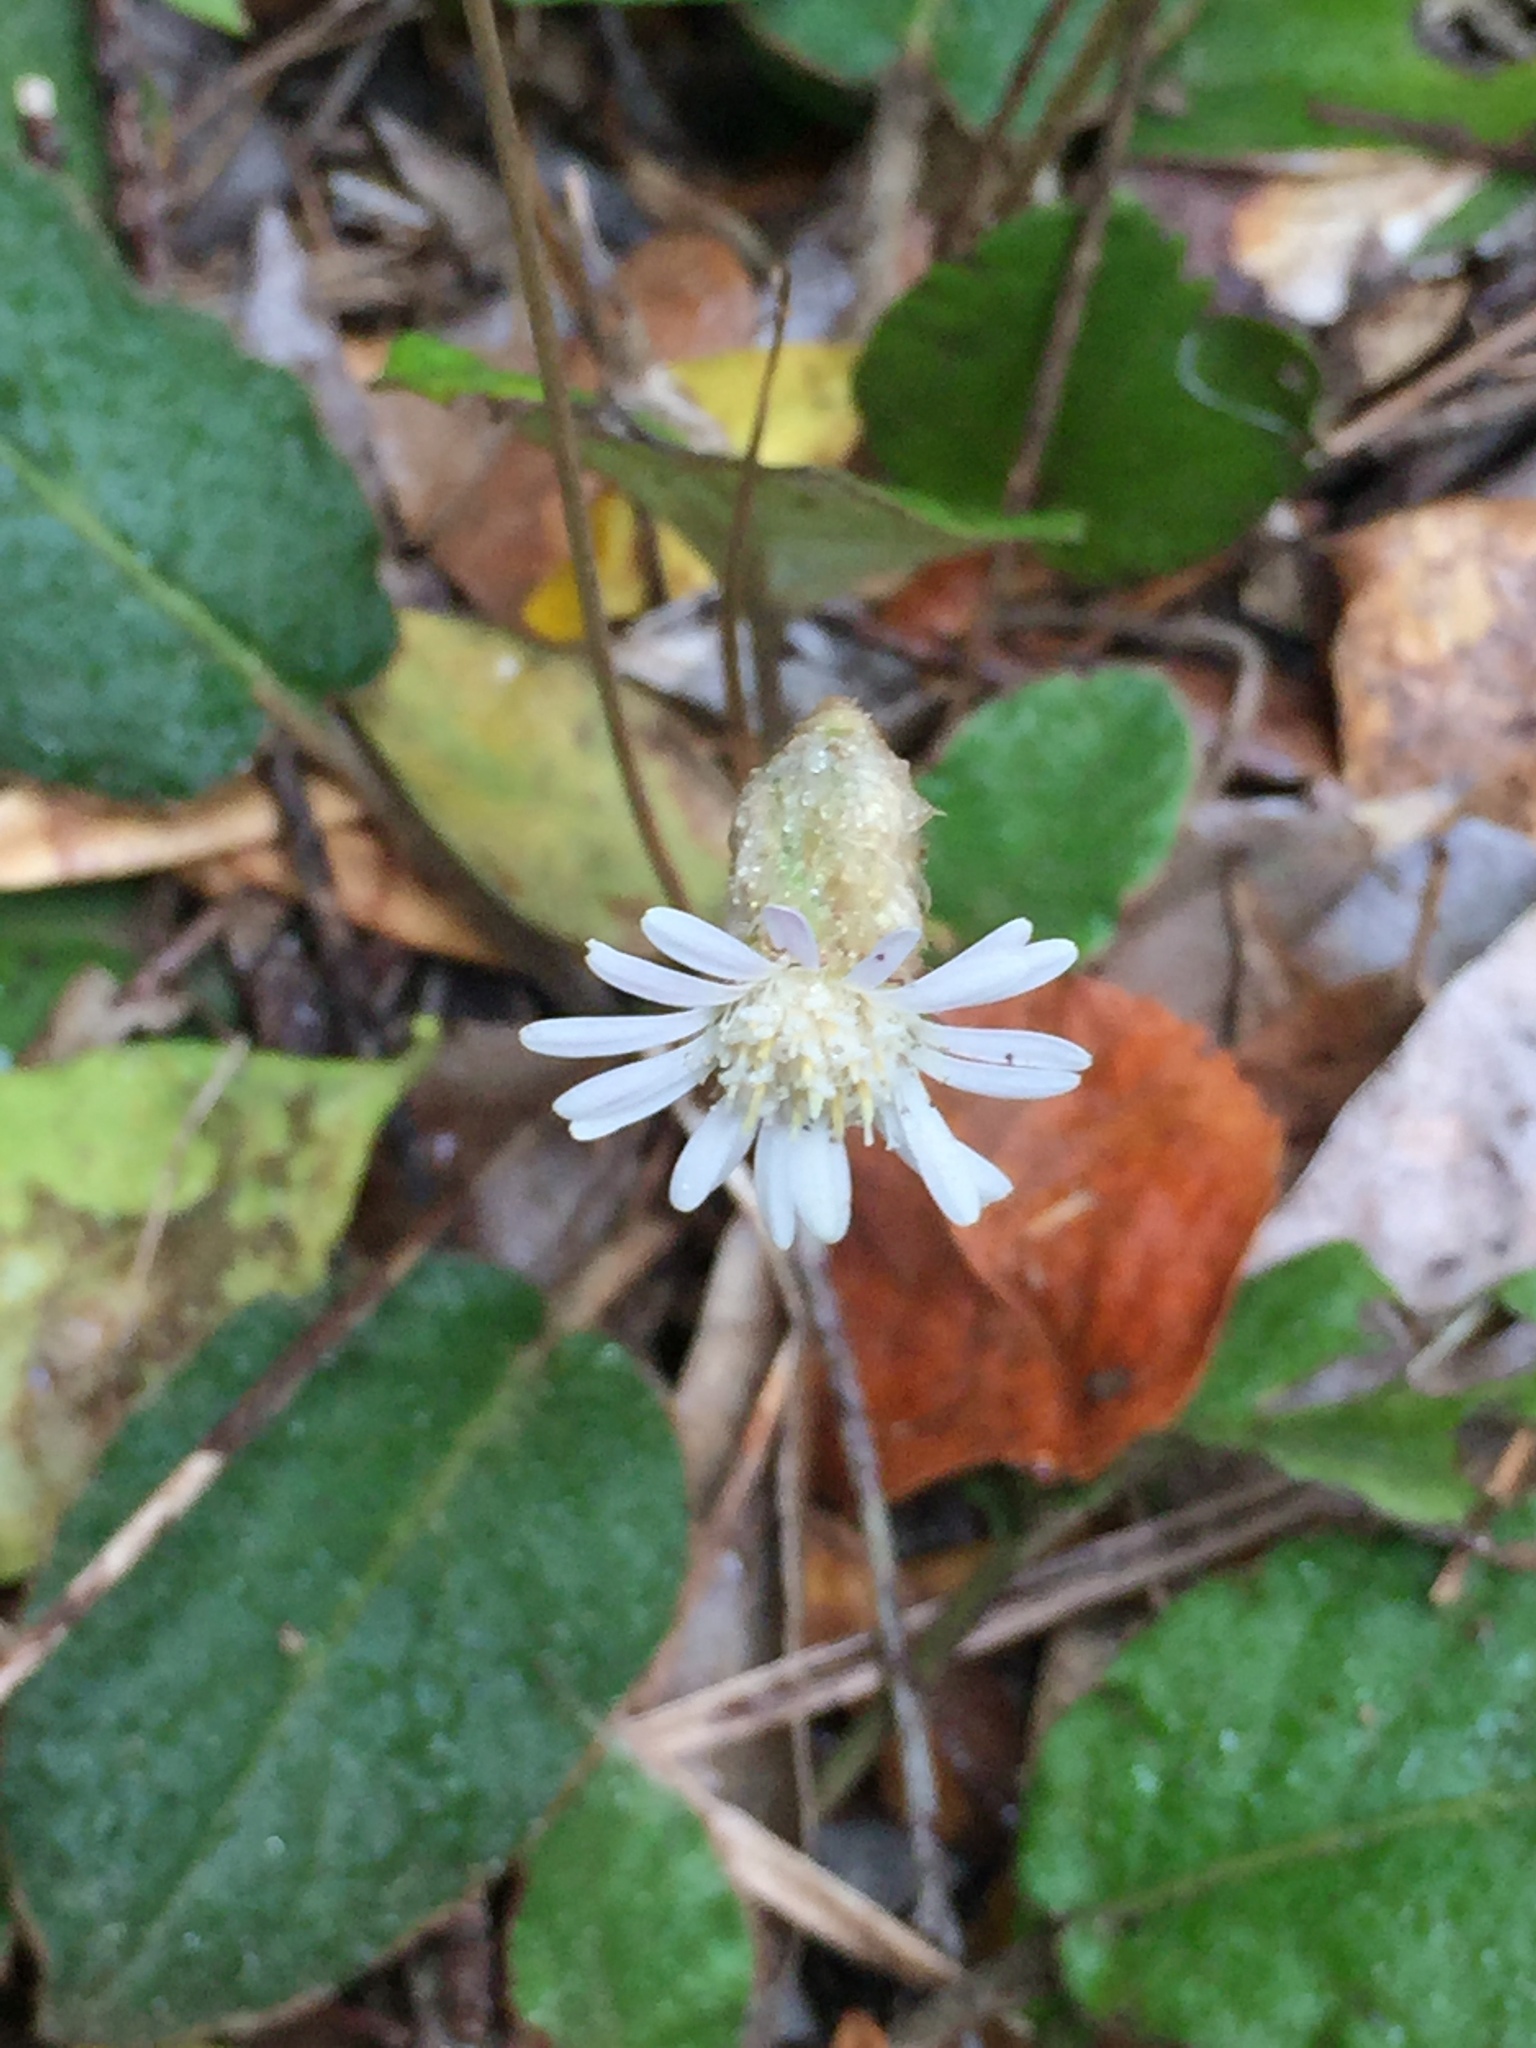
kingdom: Plantae
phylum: Tracheophyta
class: Magnoliopsida
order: Asterales
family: Asteraceae
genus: Piloselloides
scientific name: Piloselloides hirsuta
